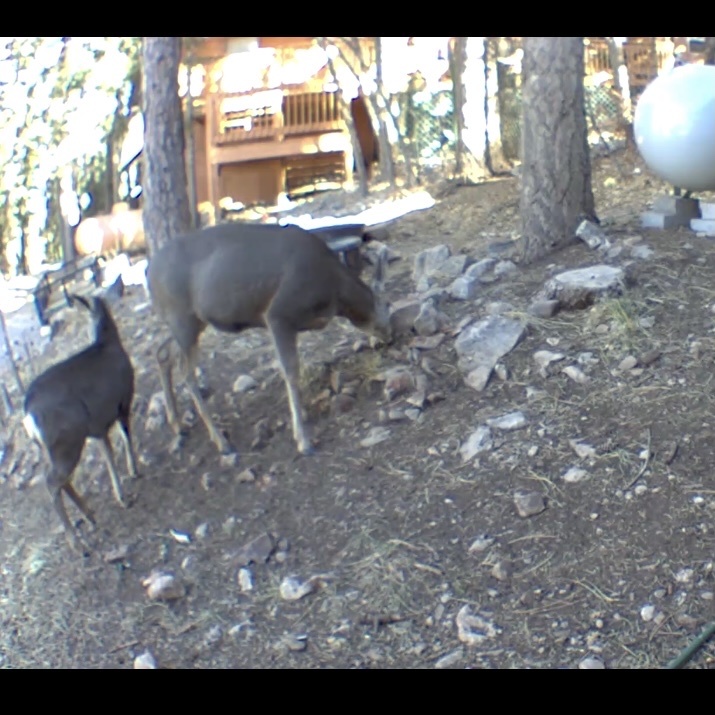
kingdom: Animalia
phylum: Chordata
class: Mammalia
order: Artiodactyla
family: Cervidae
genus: Odocoileus
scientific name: Odocoileus hemionus
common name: Mule deer
